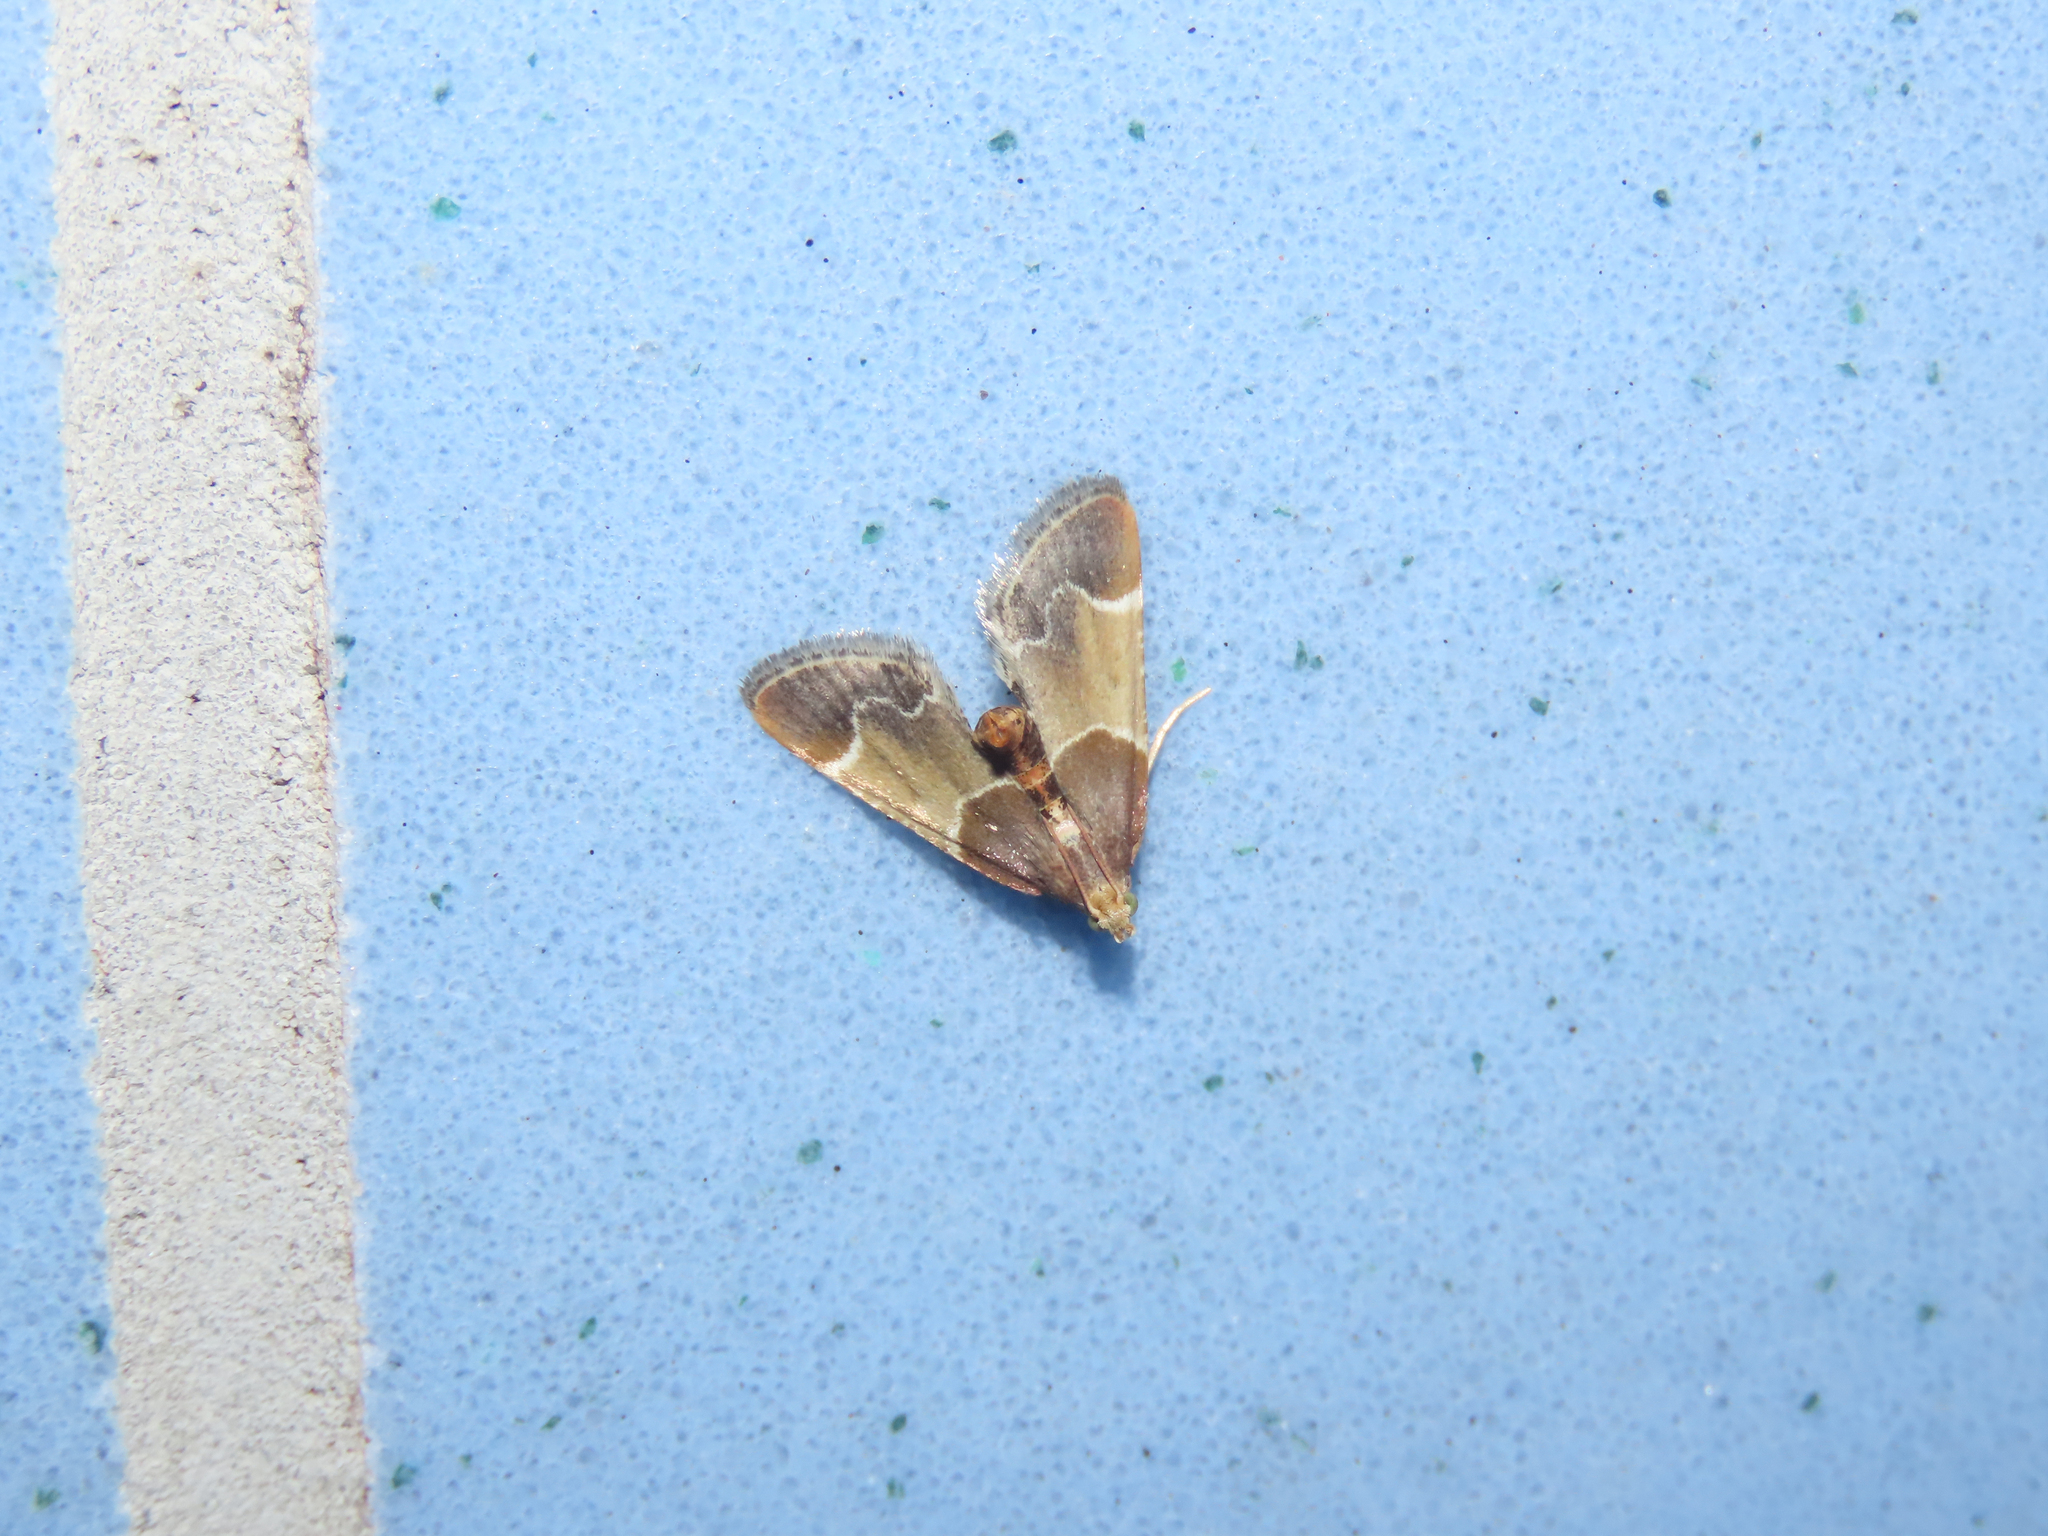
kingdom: Animalia
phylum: Arthropoda
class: Insecta
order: Lepidoptera
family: Pyralidae
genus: Pyralis
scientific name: Pyralis farinalis
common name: Meal moth
